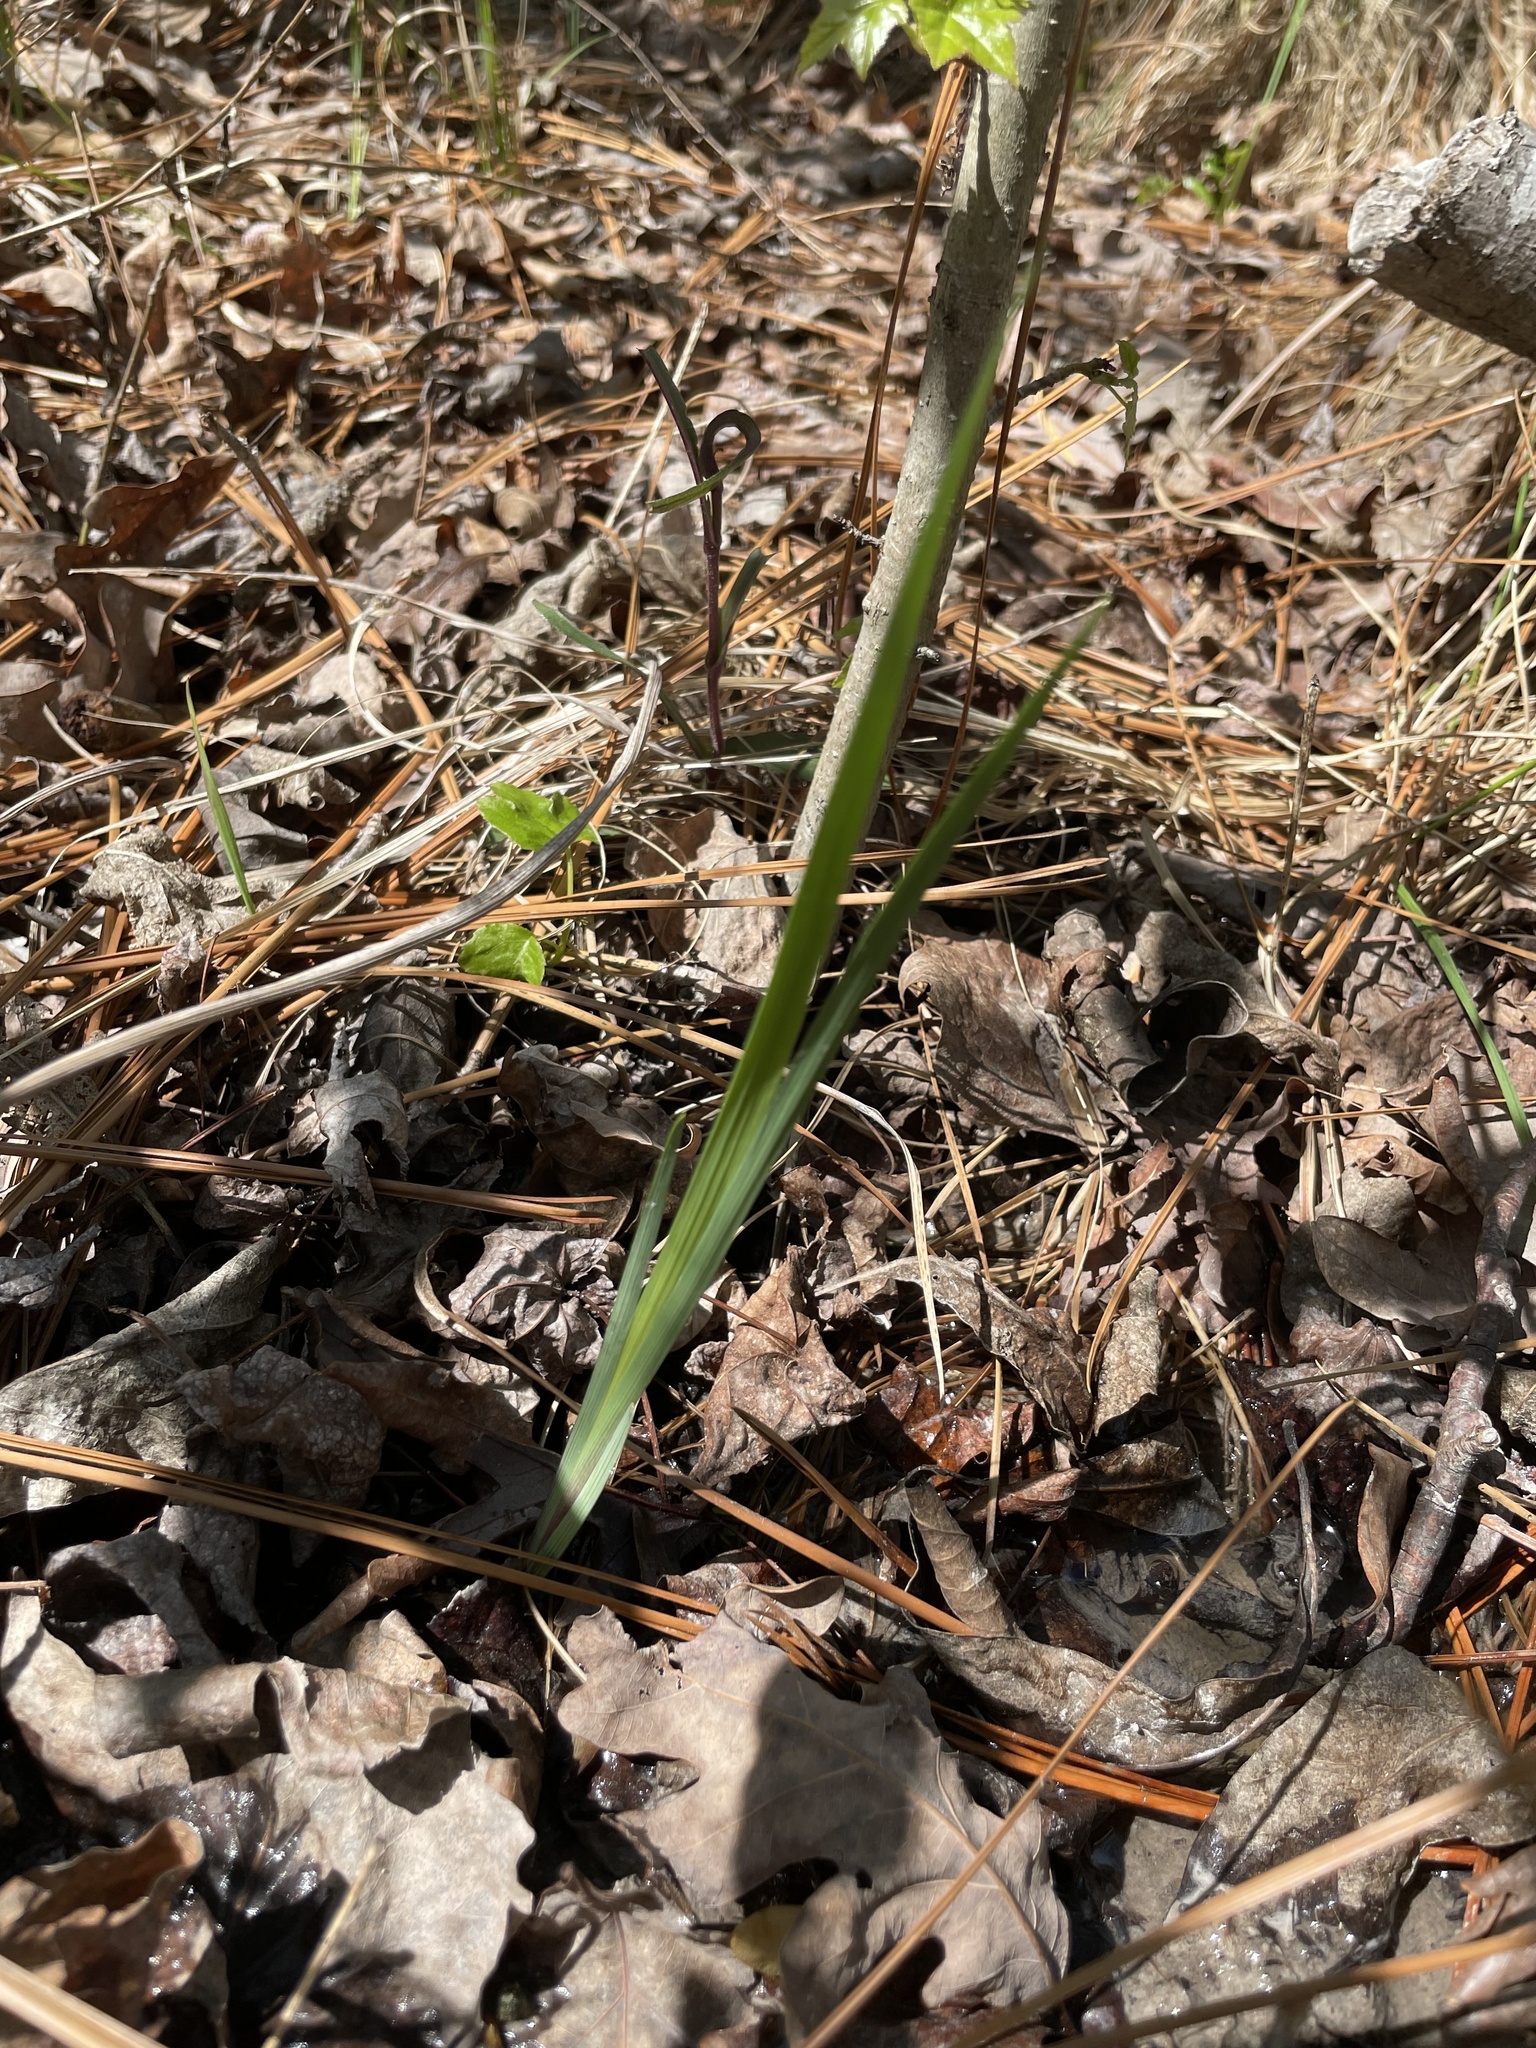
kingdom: Plantae
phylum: Tracheophyta
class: Liliopsida
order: Asparagales
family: Iridaceae
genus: Iris
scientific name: Iris prismatica
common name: Slender blue flag
